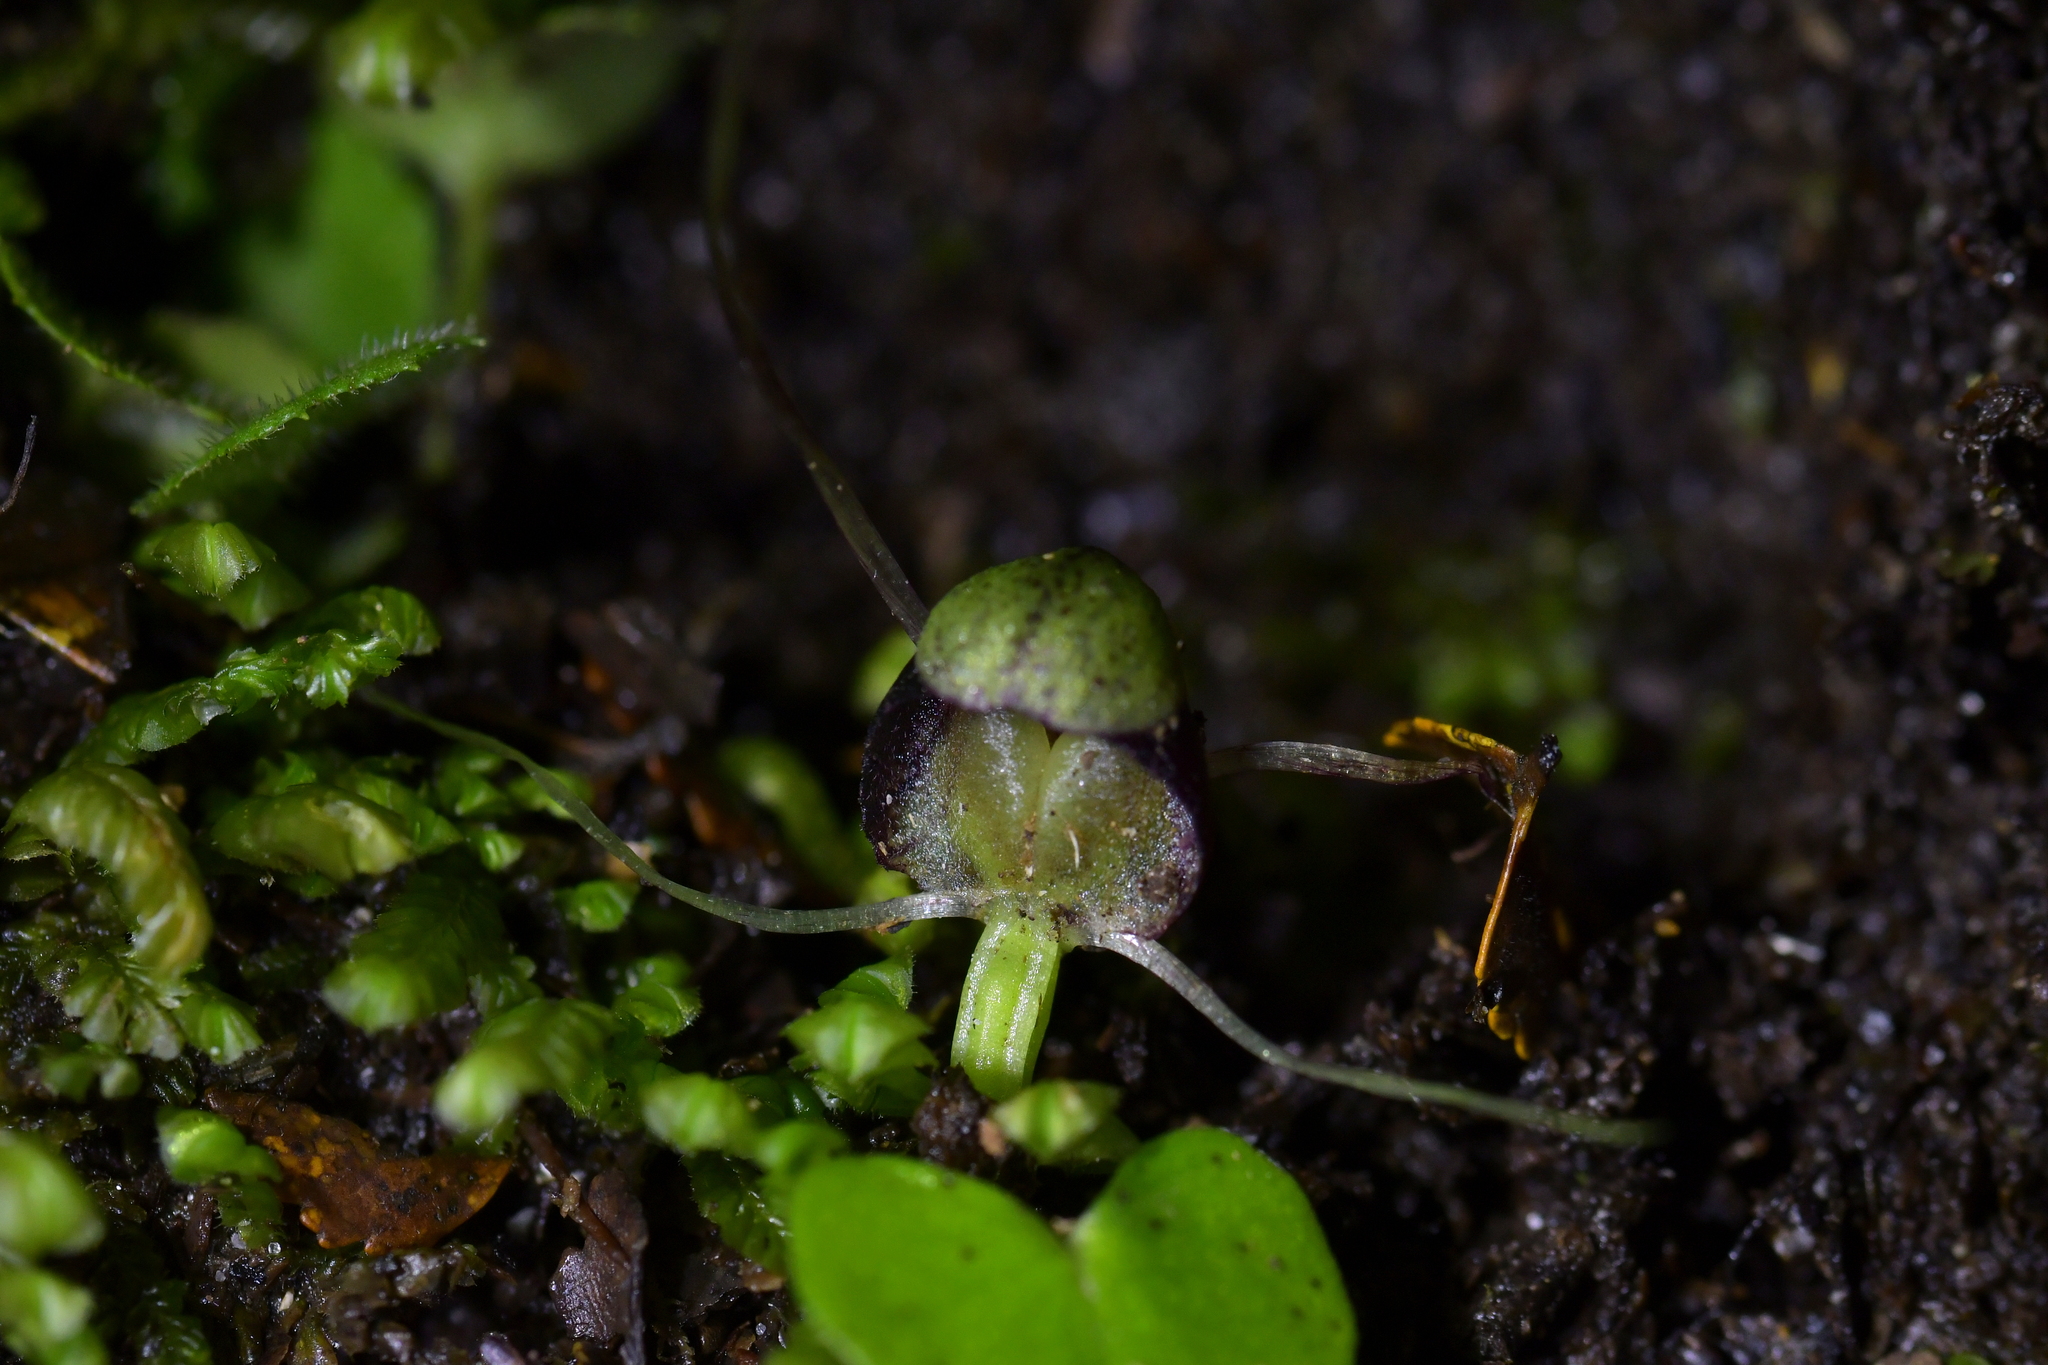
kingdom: Plantae
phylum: Tracheophyta
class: Liliopsida
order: Asparagales
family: Orchidaceae
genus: Corybas
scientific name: Corybas trilobus
